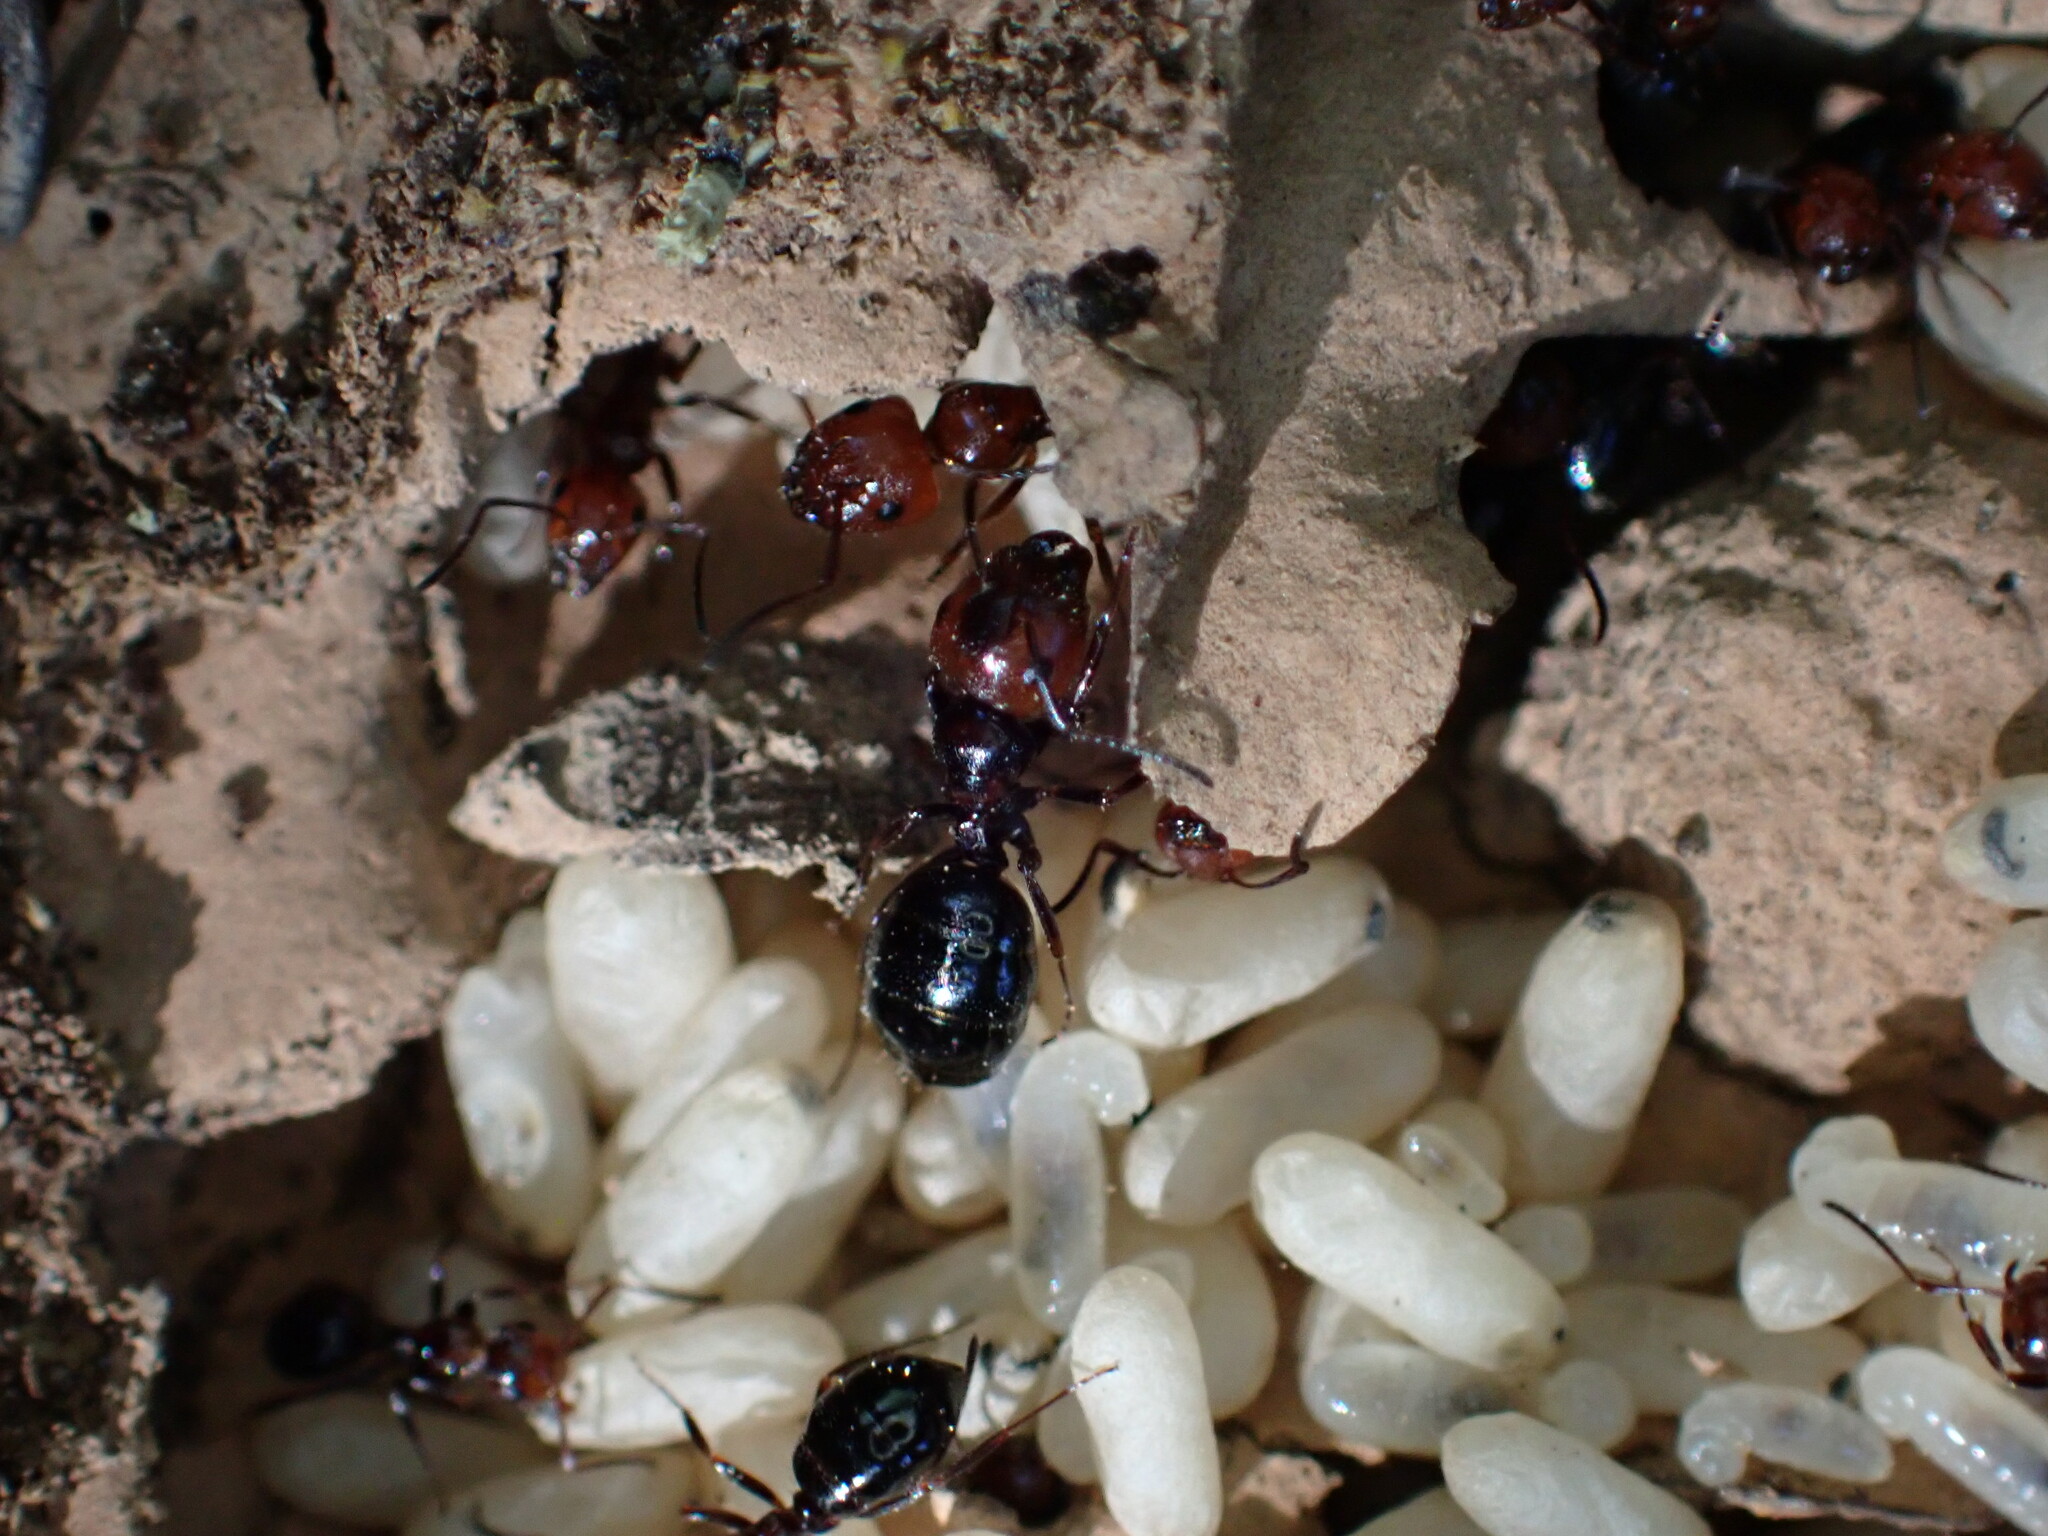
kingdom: Animalia
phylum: Arthropoda
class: Insecta
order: Hymenoptera
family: Formicidae
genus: Camponotus
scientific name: Camponotus lateralis
